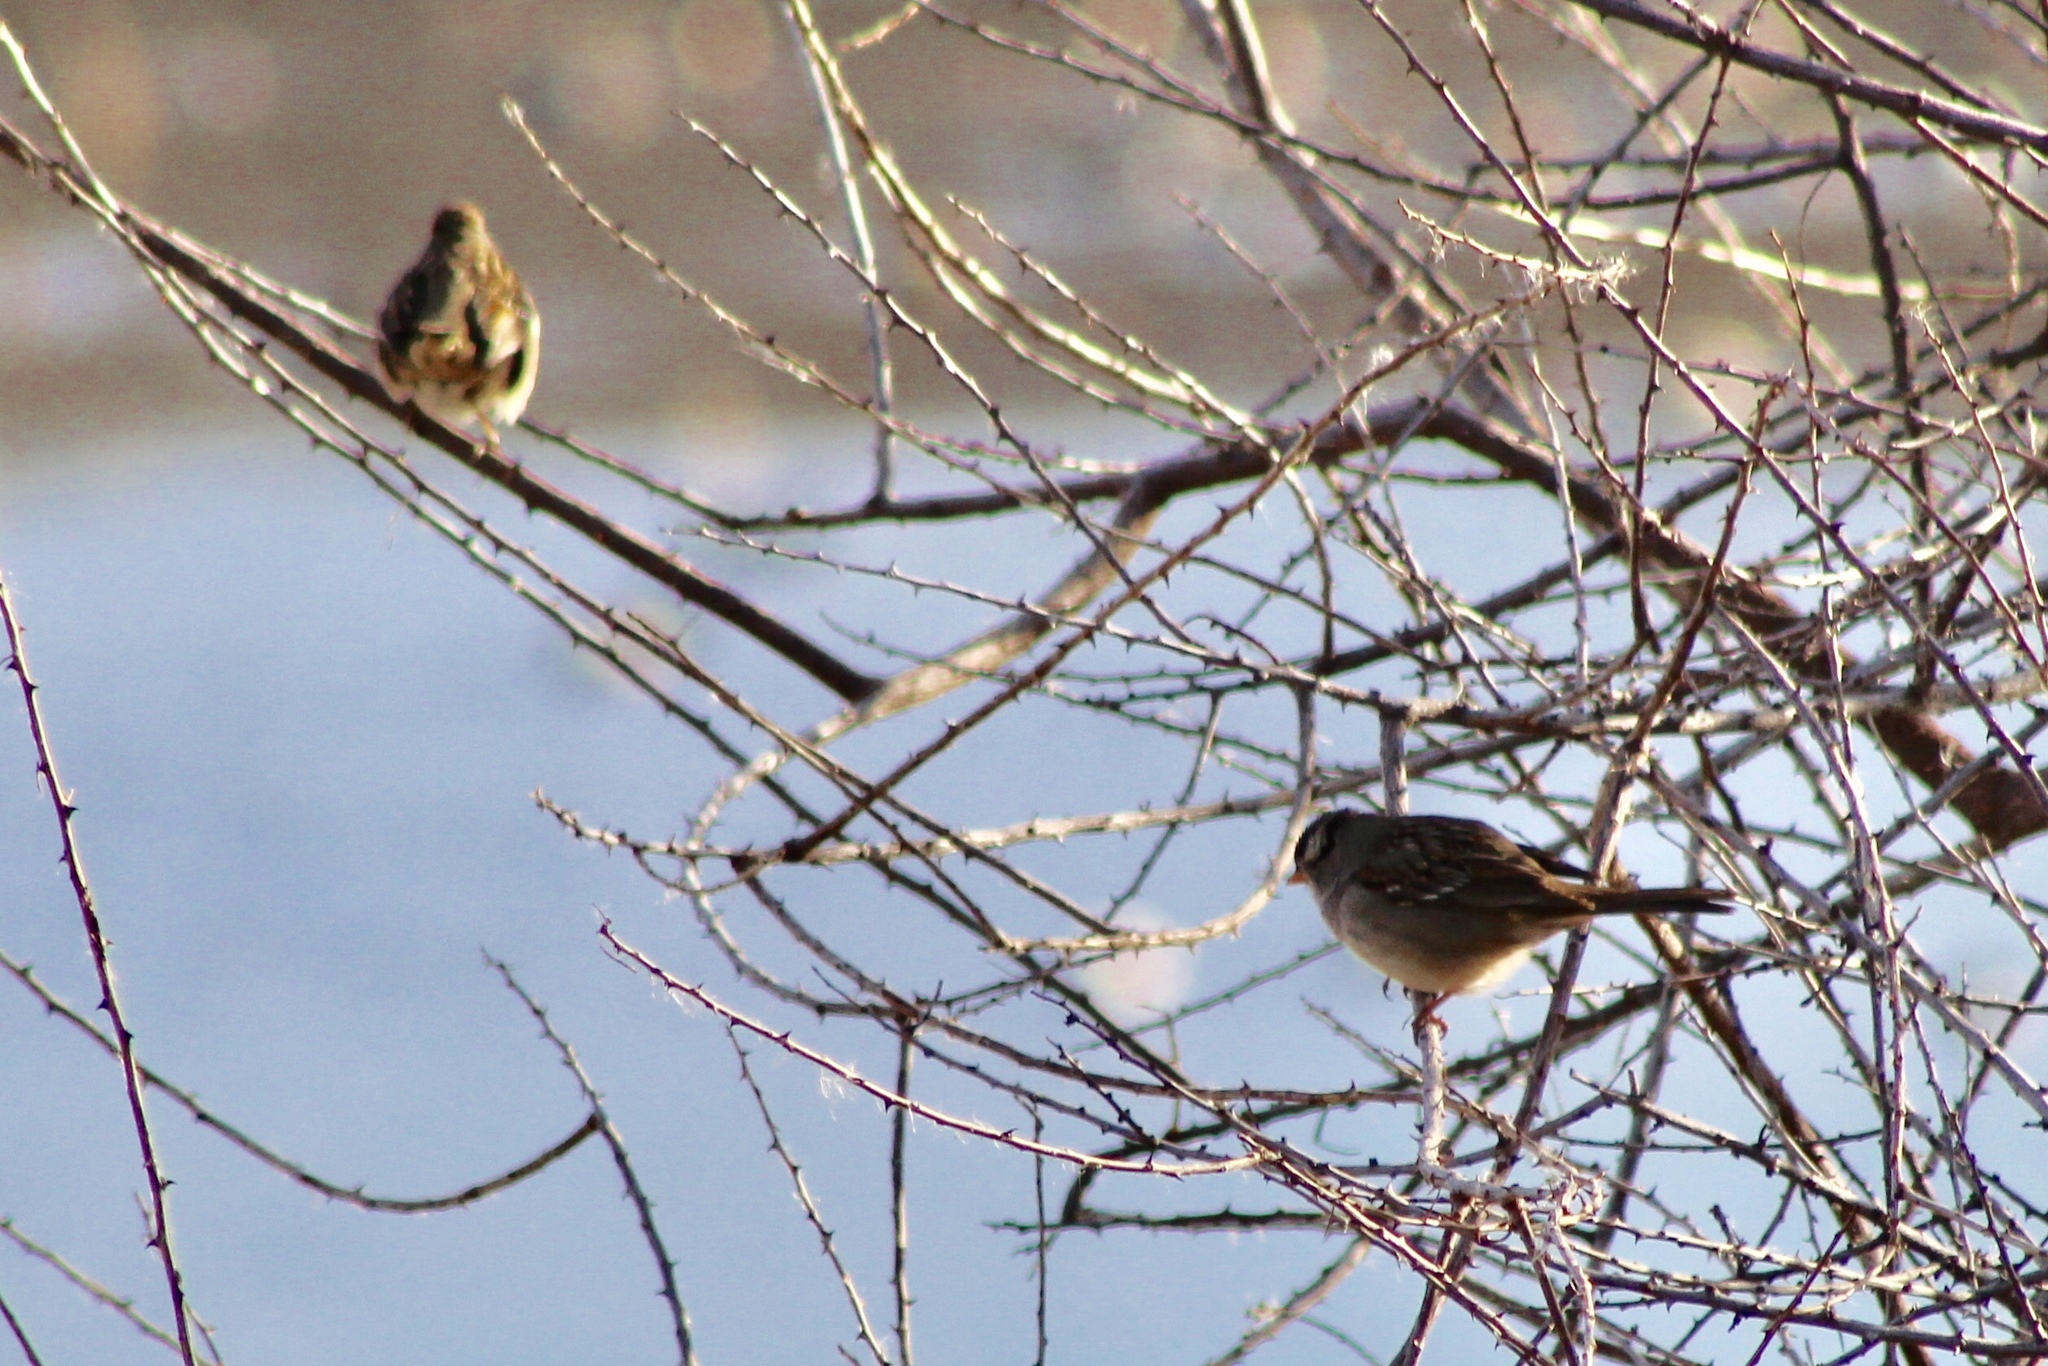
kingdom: Animalia
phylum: Chordata
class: Aves
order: Passeriformes
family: Passerellidae
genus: Zonotrichia
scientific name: Zonotrichia leucophrys
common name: White-crowned sparrow
